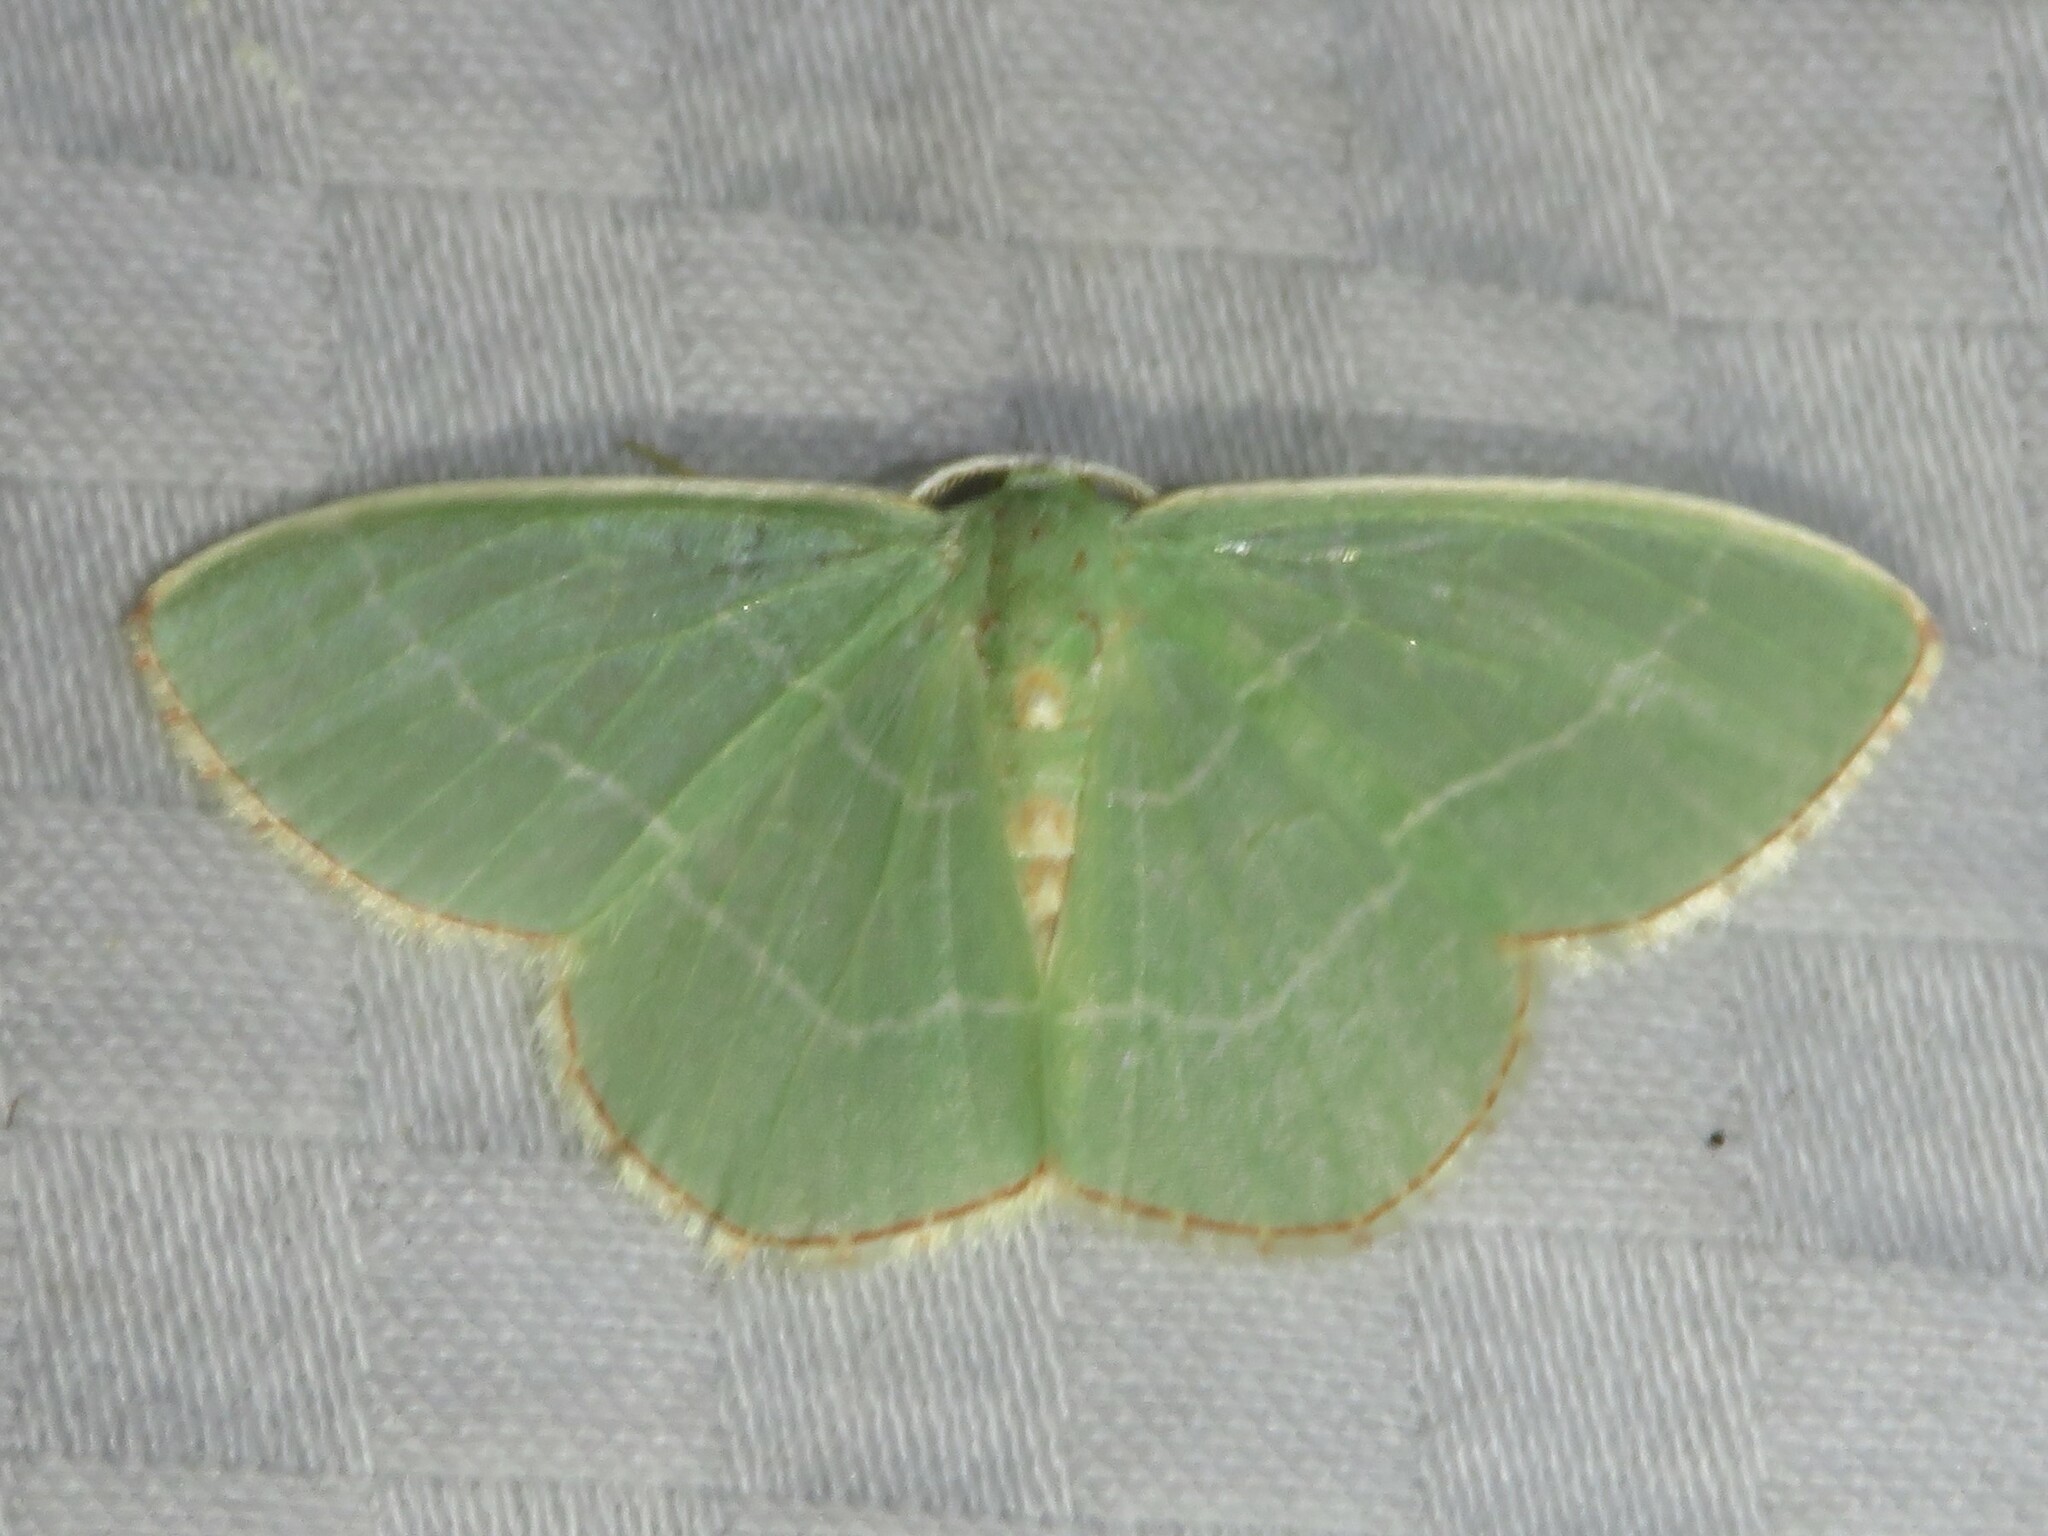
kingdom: Animalia
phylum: Arthropoda
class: Insecta
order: Lepidoptera
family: Geometridae
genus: Nemoria
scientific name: Nemoria bistriaria
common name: Red-fringed emerald
